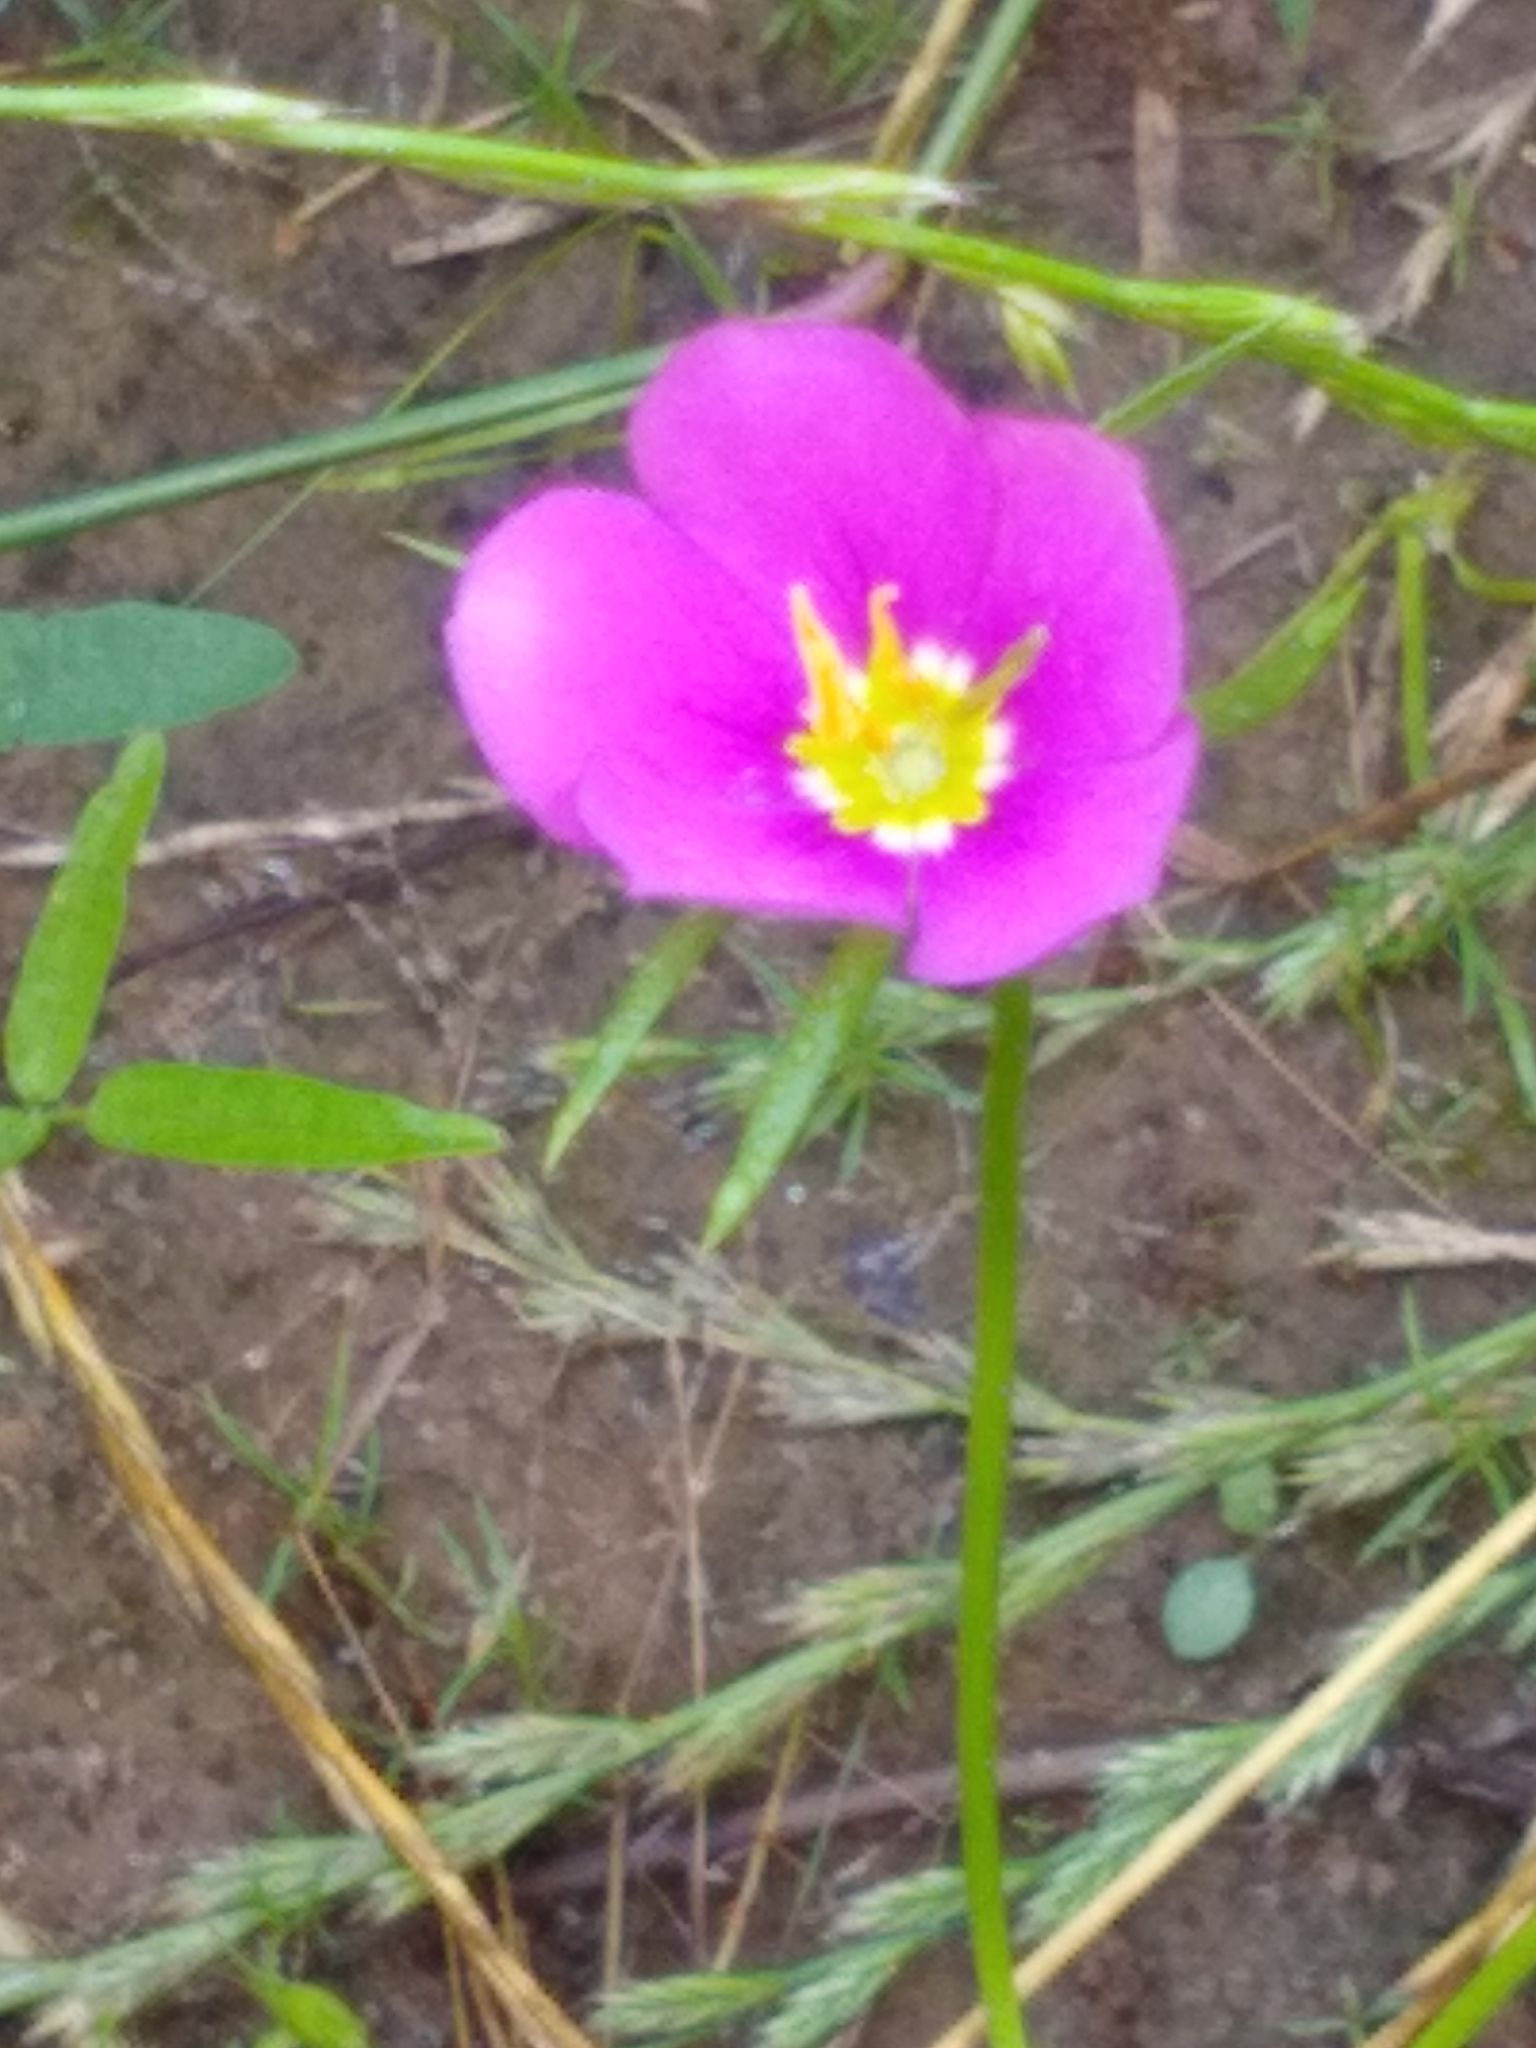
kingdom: Plantae
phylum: Tracheophyta
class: Magnoliopsida
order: Gentianales
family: Gentianaceae
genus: Sabatia
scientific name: Sabatia campestris
